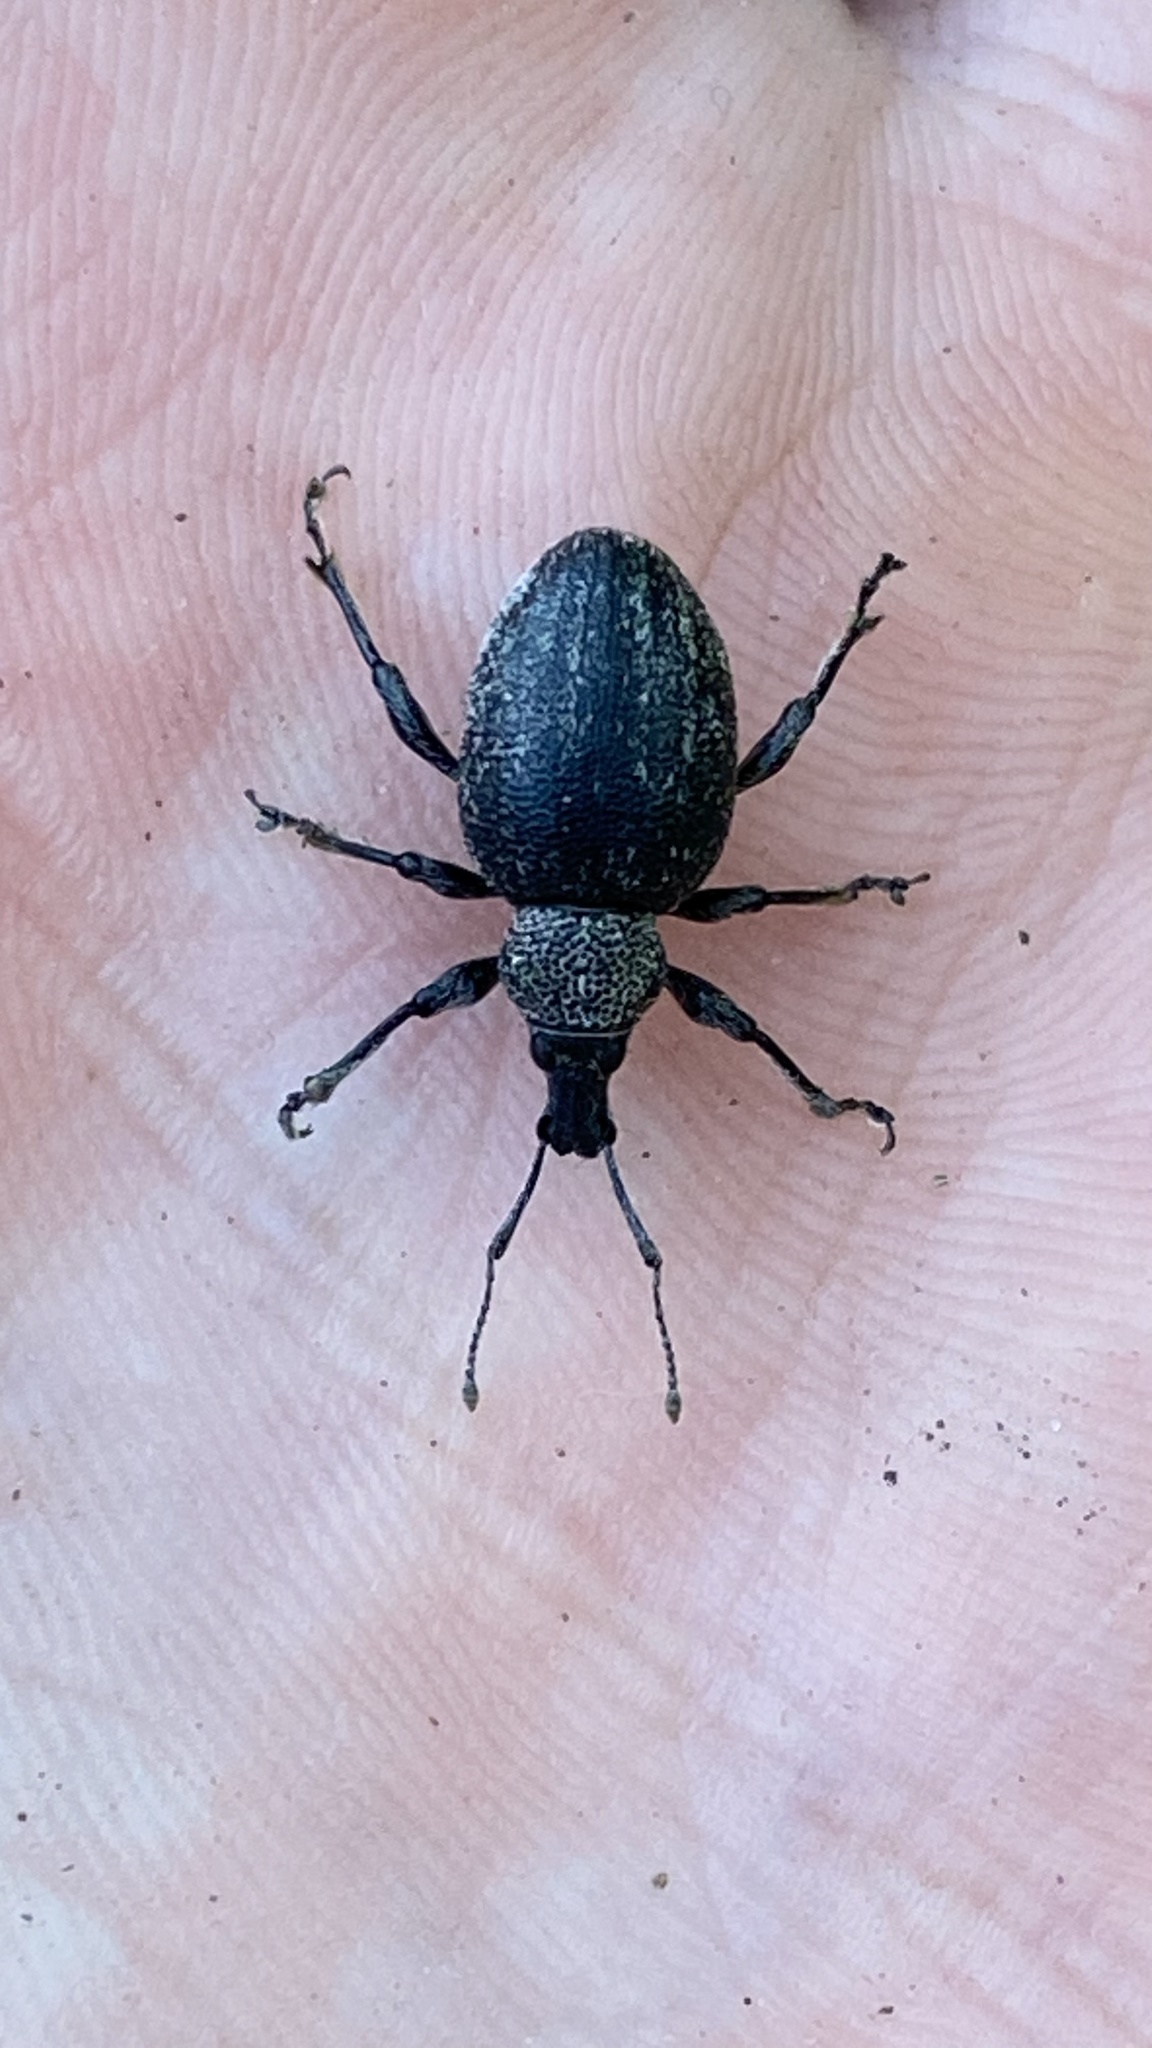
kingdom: Animalia
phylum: Arthropoda
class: Insecta
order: Coleoptera
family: Curculionidae
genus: Otiorhynchus
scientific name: Otiorhynchus ligustici
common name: Weevil
